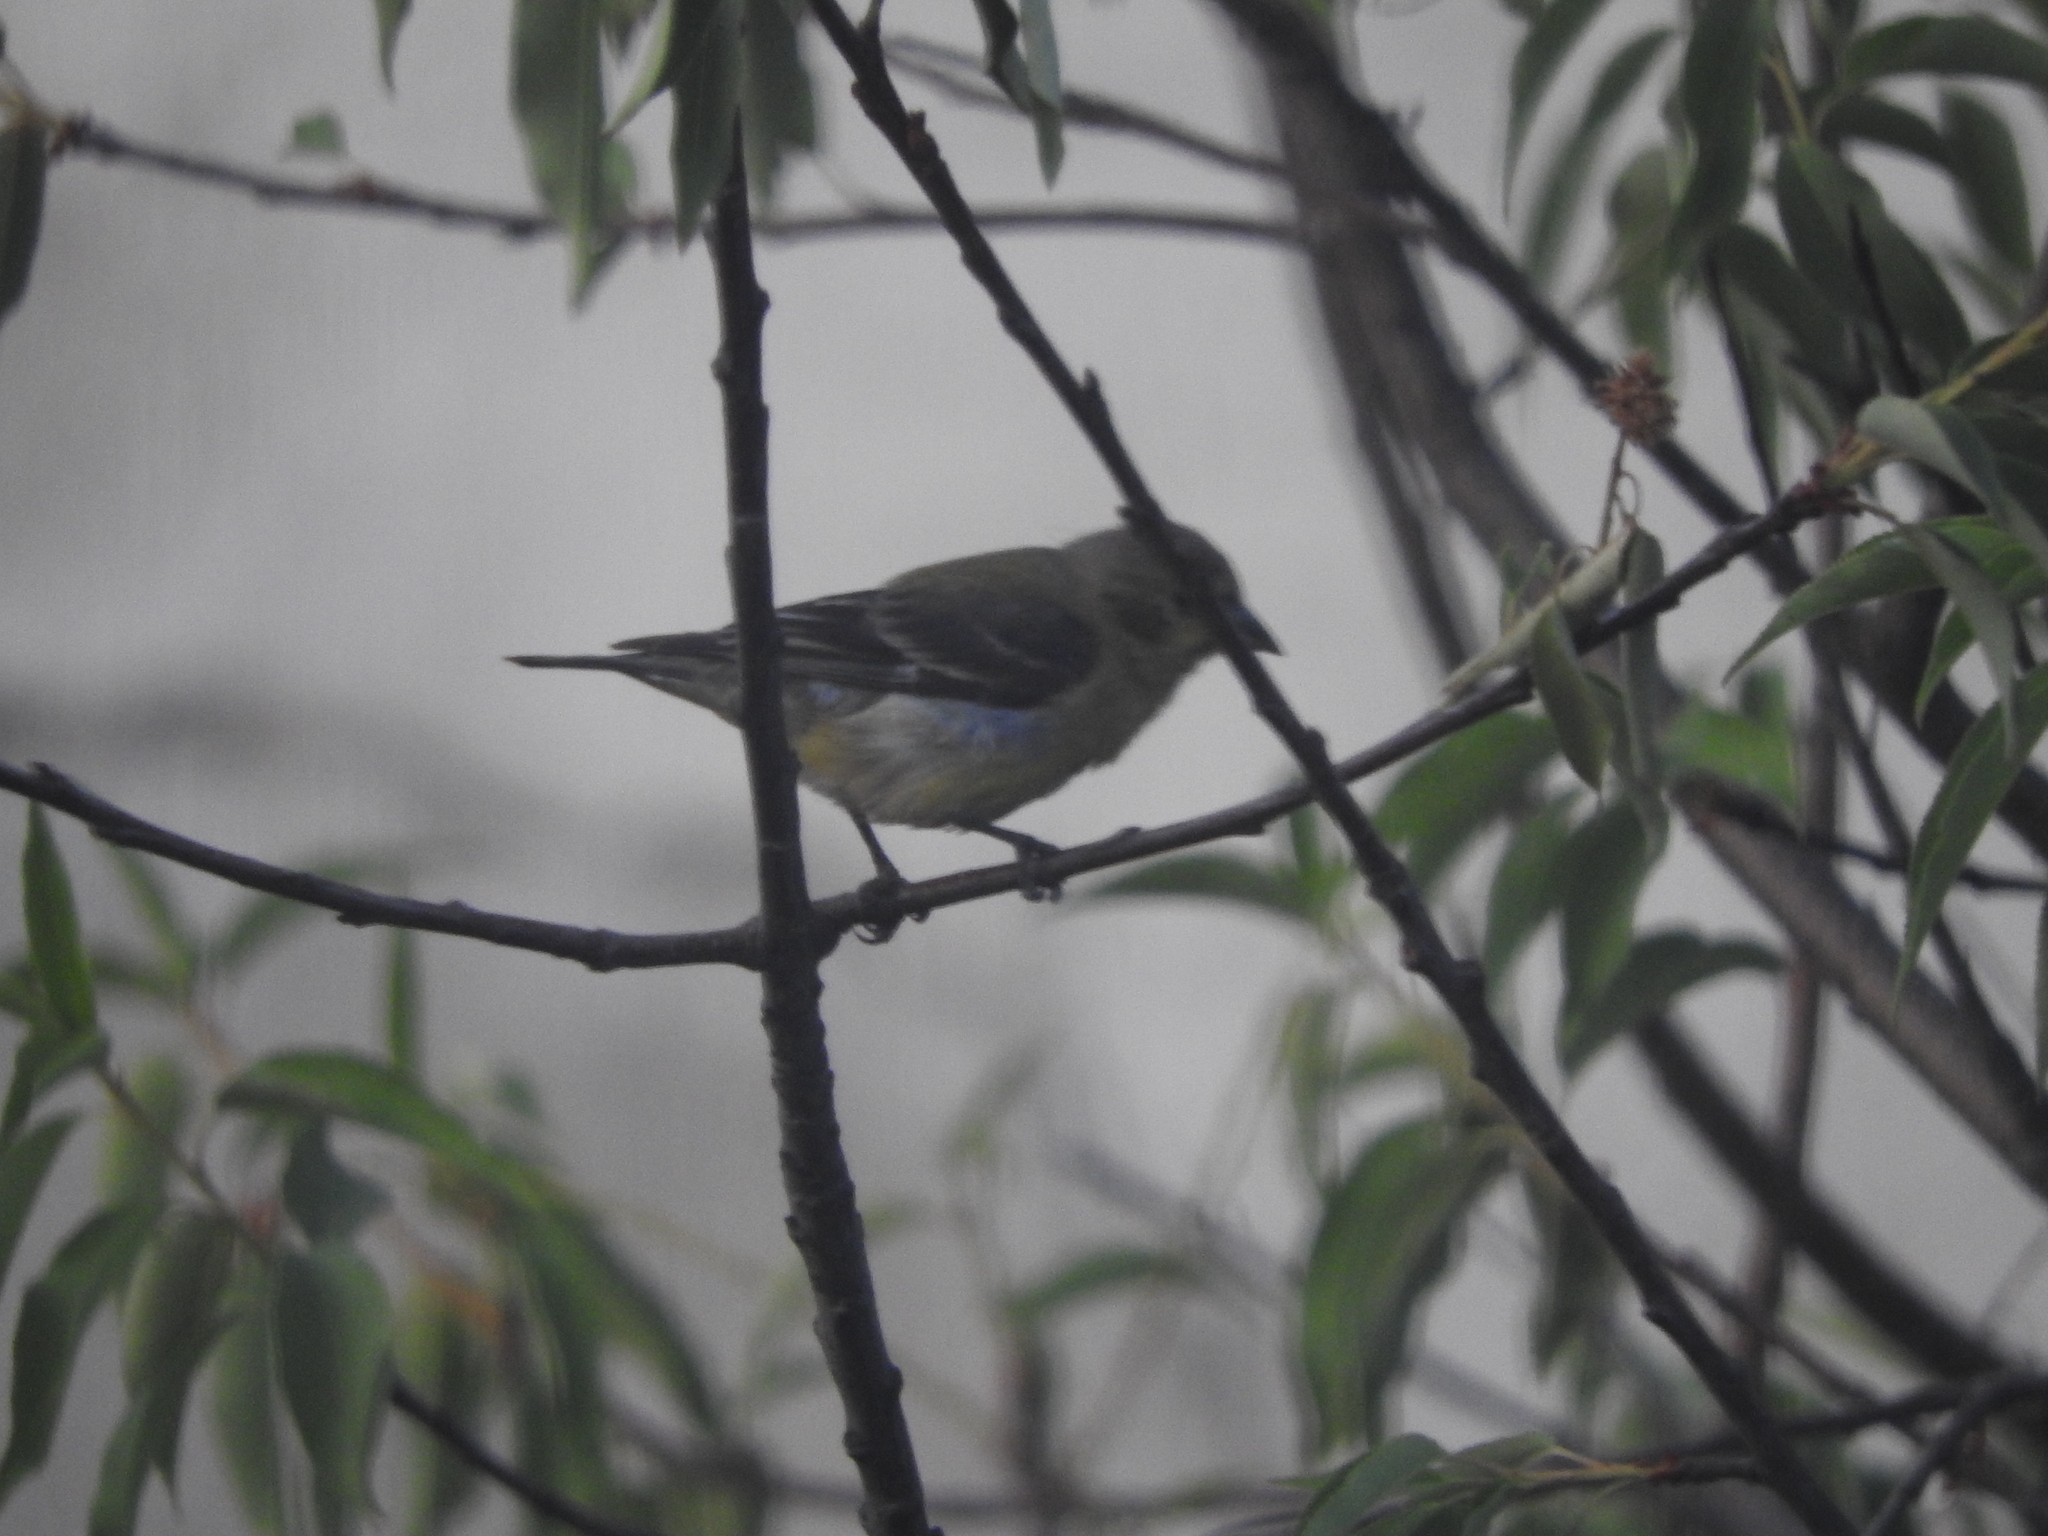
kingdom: Animalia
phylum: Chordata
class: Aves
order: Passeriformes
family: Passeridae
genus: Passer
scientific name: Passer domesticus
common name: House sparrow
